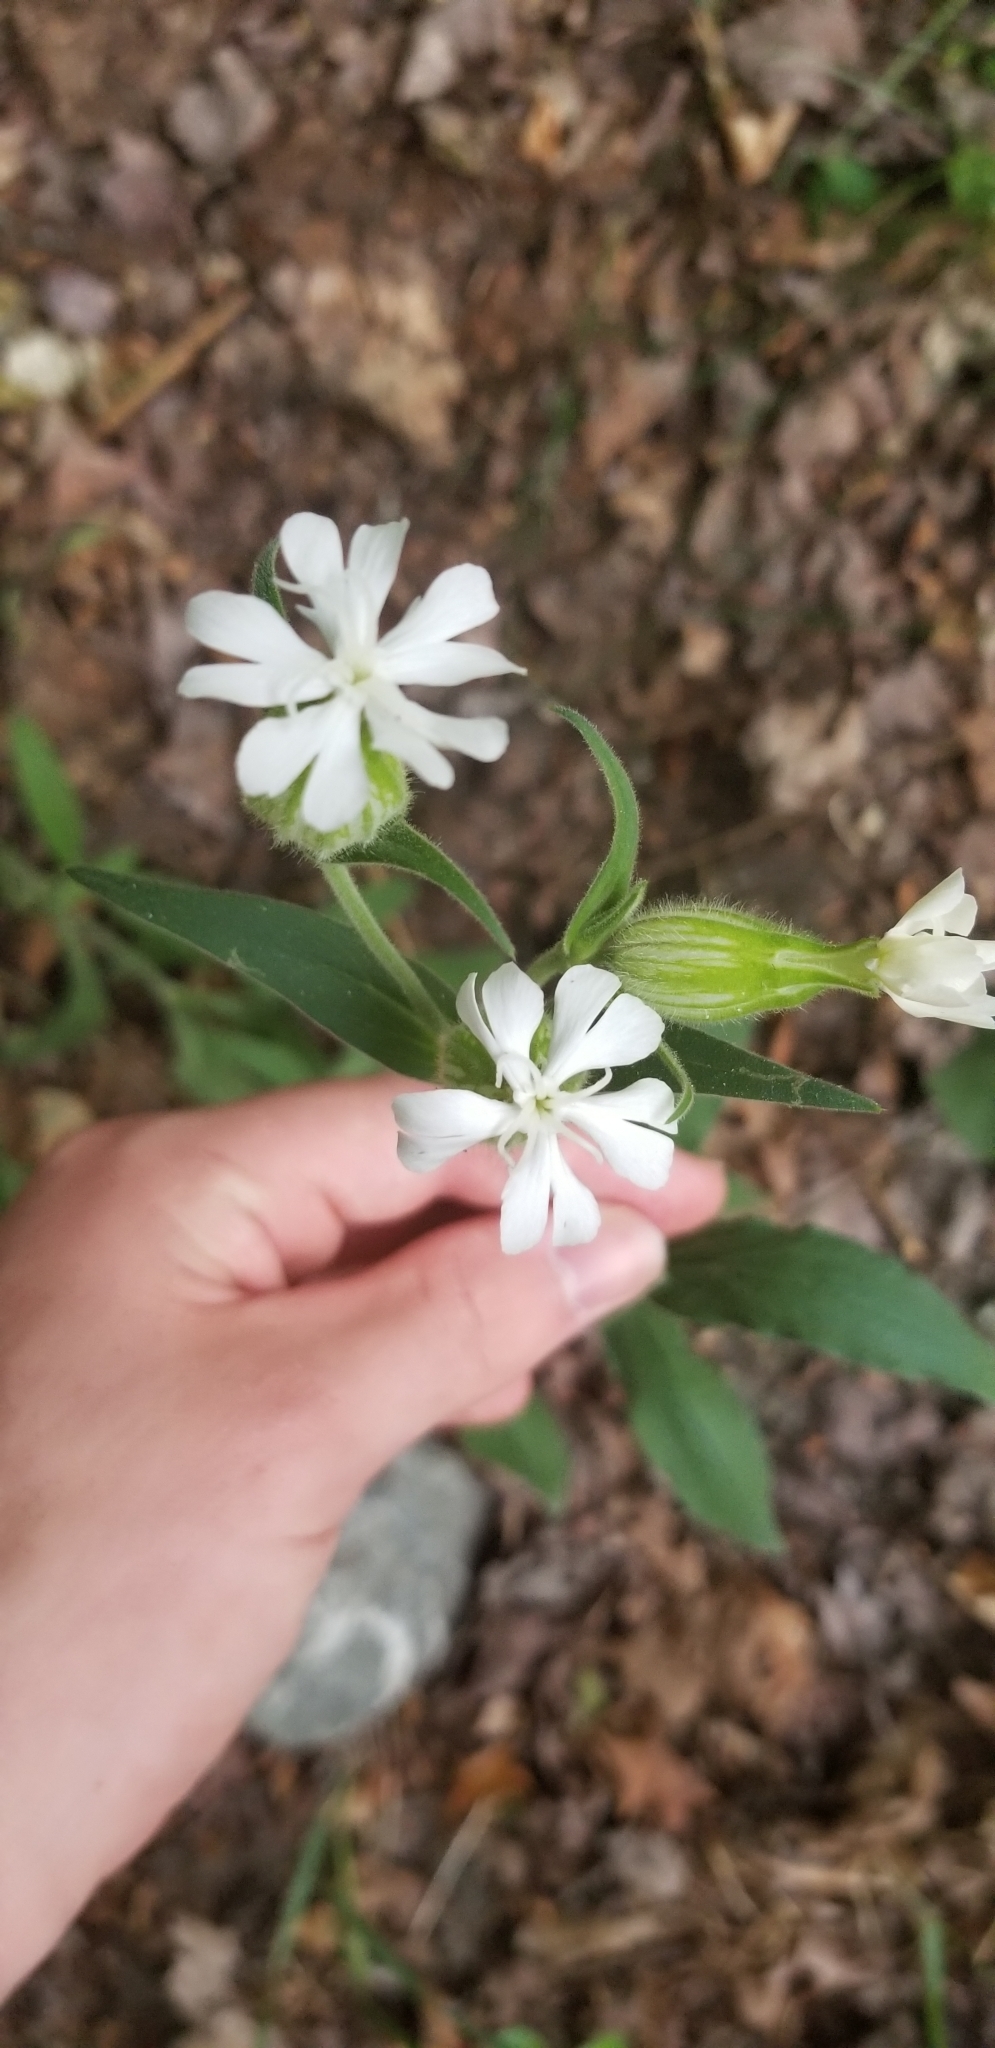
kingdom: Plantae
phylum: Tracheophyta
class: Magnoliopsida
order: Caryophyllales
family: Caryophyllaceae
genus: Silene
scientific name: Silene latifolia
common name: White campion
